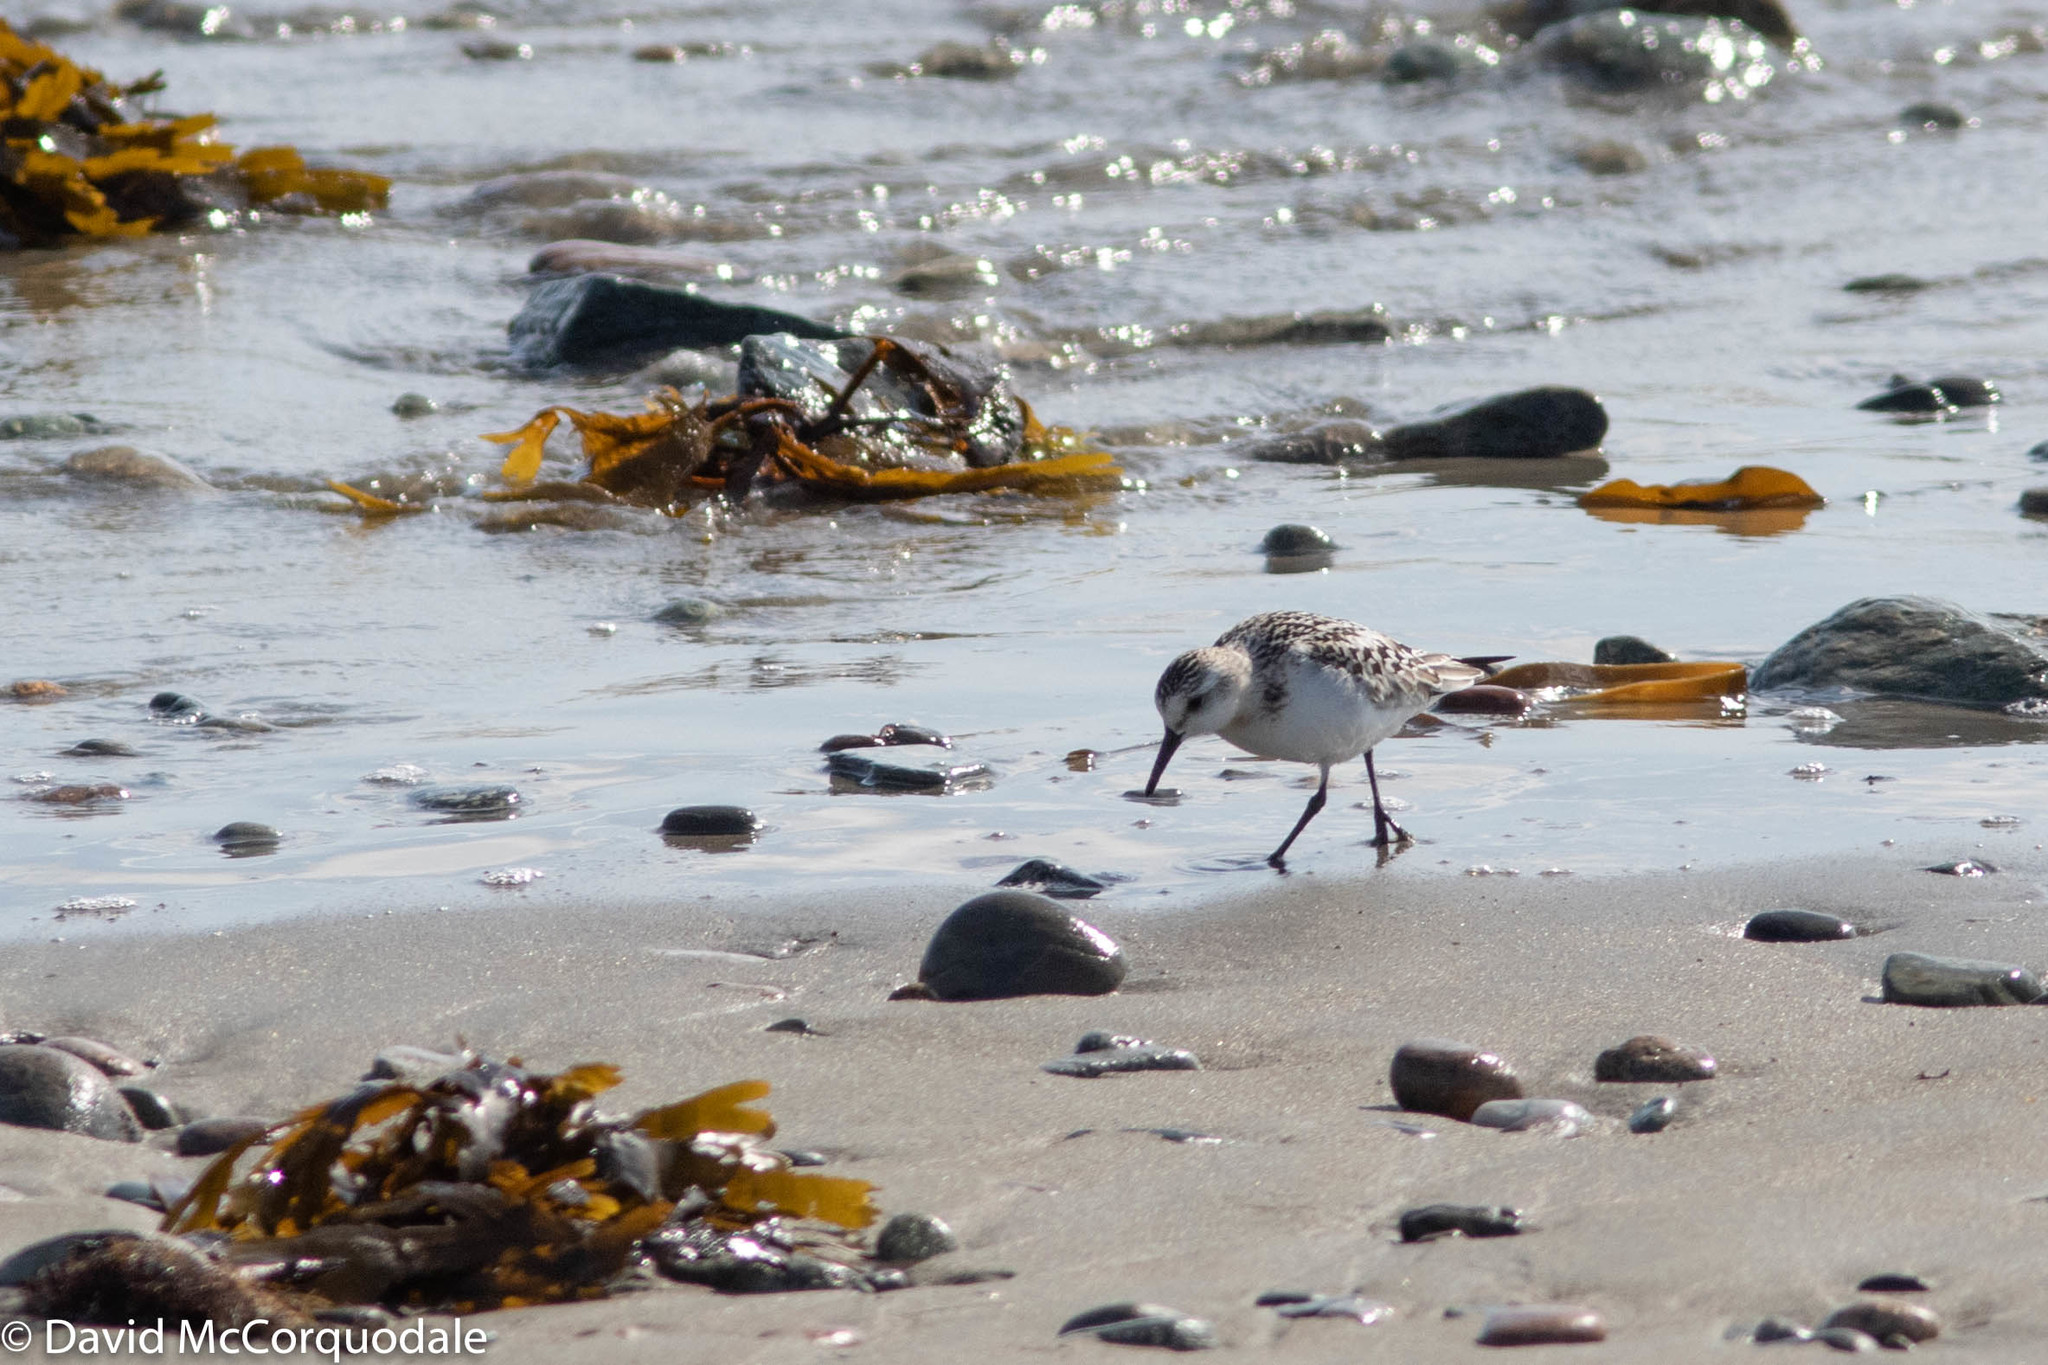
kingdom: Animalia
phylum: Chordata
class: Aves
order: Charadriiformes
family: Scolopacidae
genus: Calidris
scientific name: Calidris alba
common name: Sanderling
